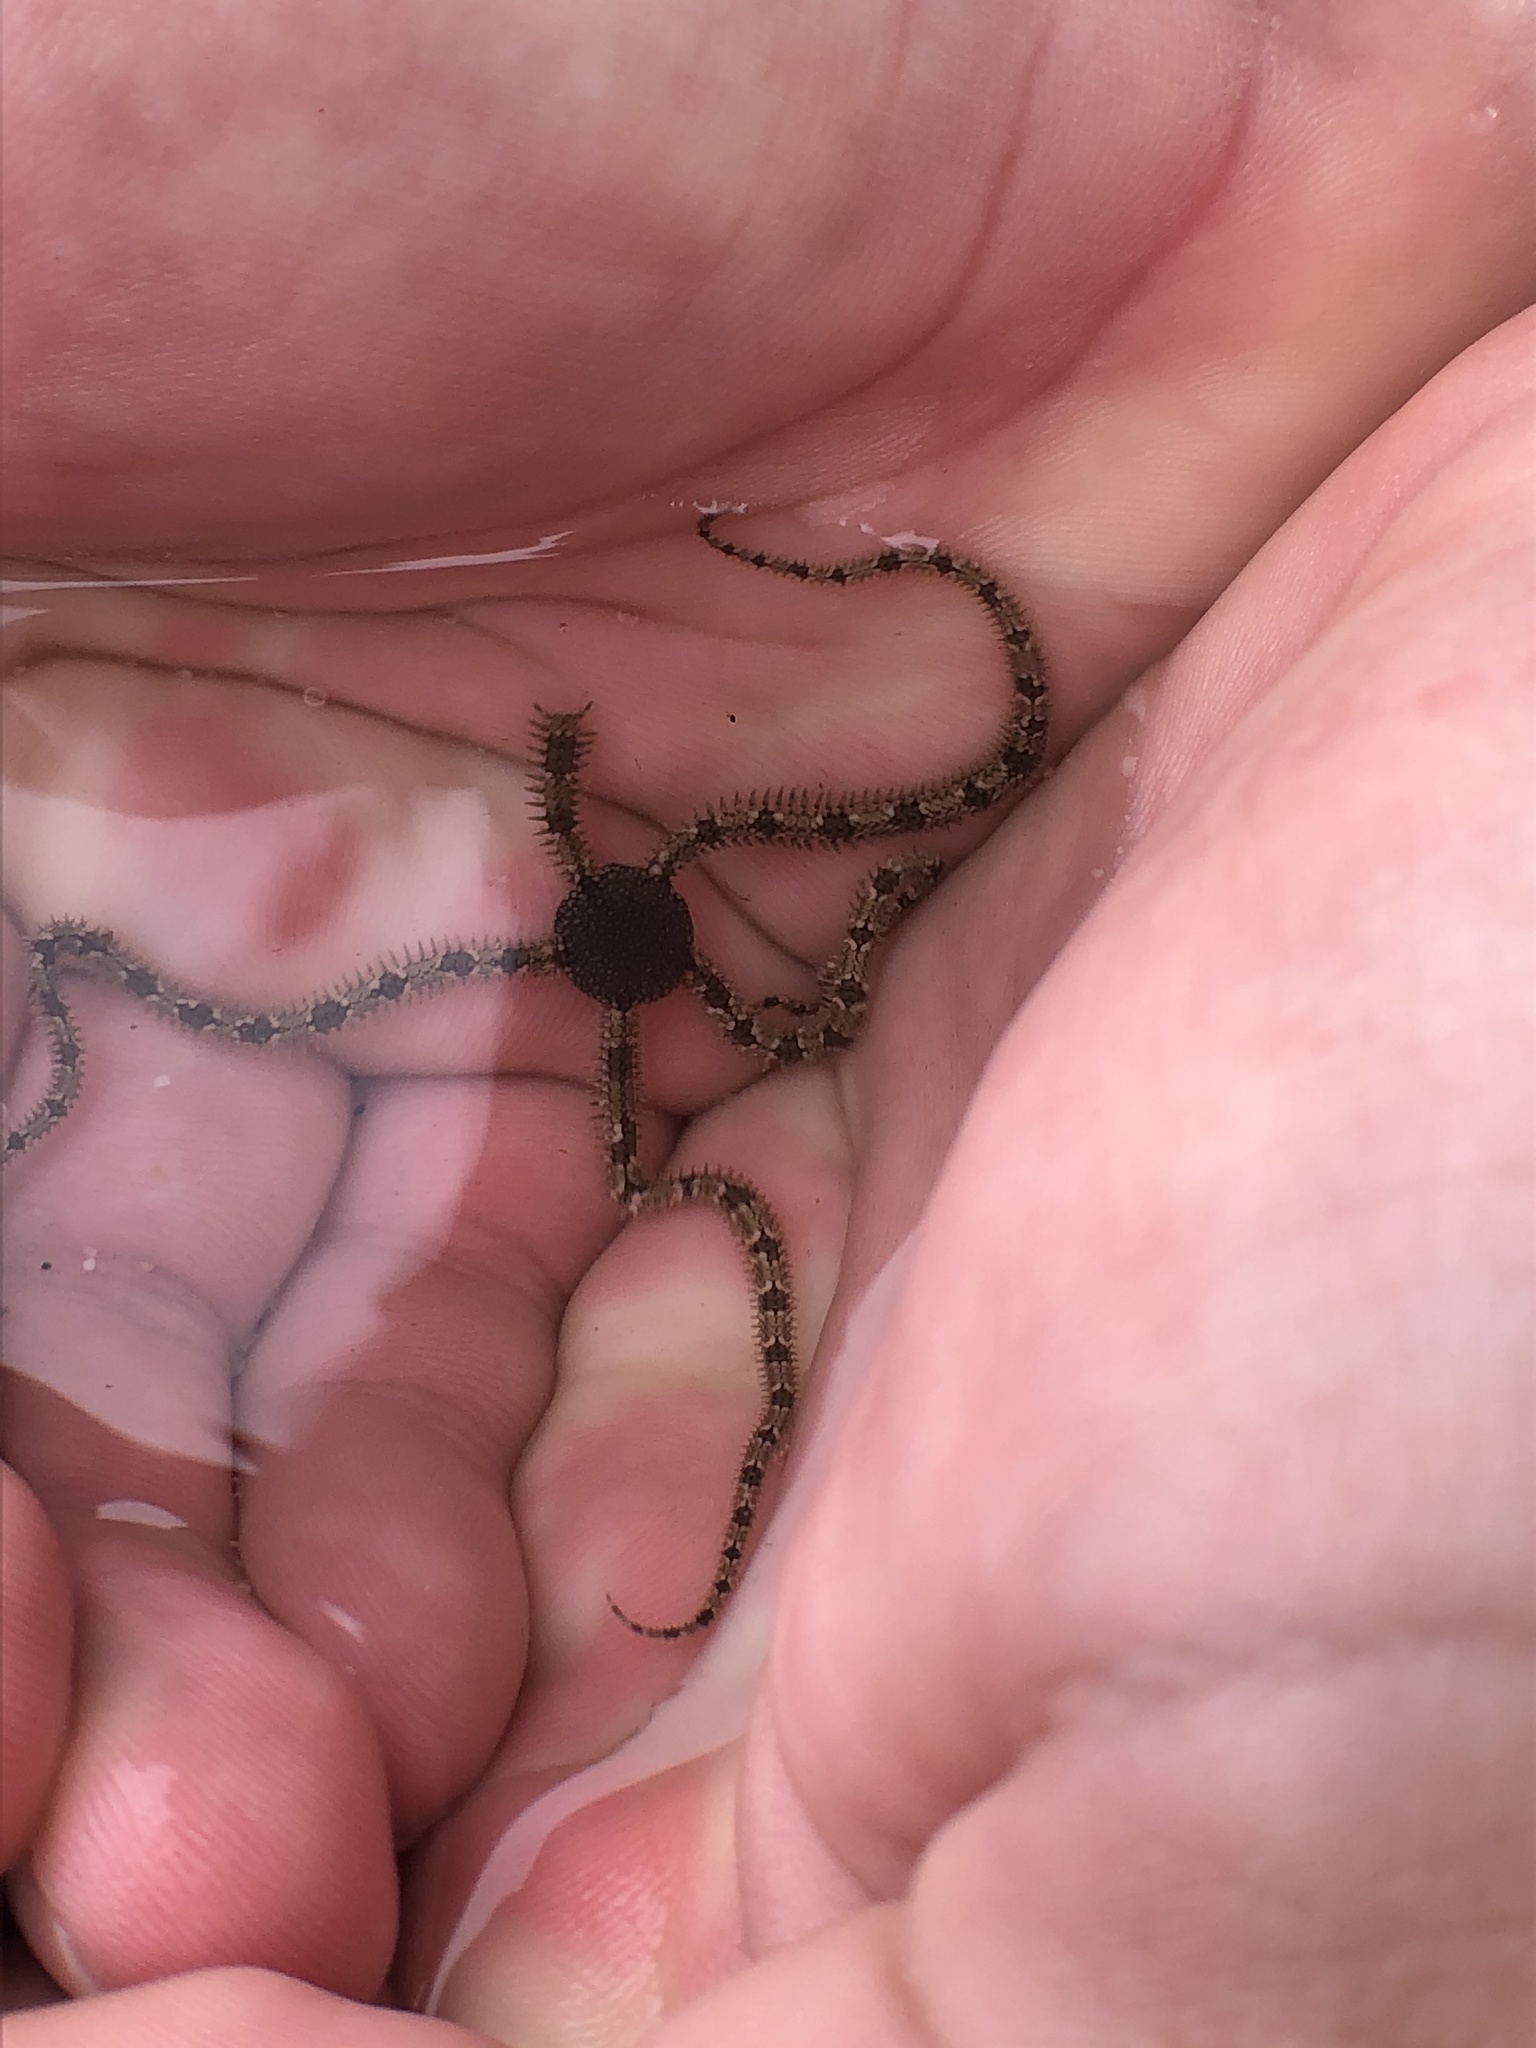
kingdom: Animalia
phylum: Echinodermata
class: Ophiuroidea
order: Amphilepidida
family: Ophionereididae
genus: Ophionereis
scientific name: Ophionereis annulata
